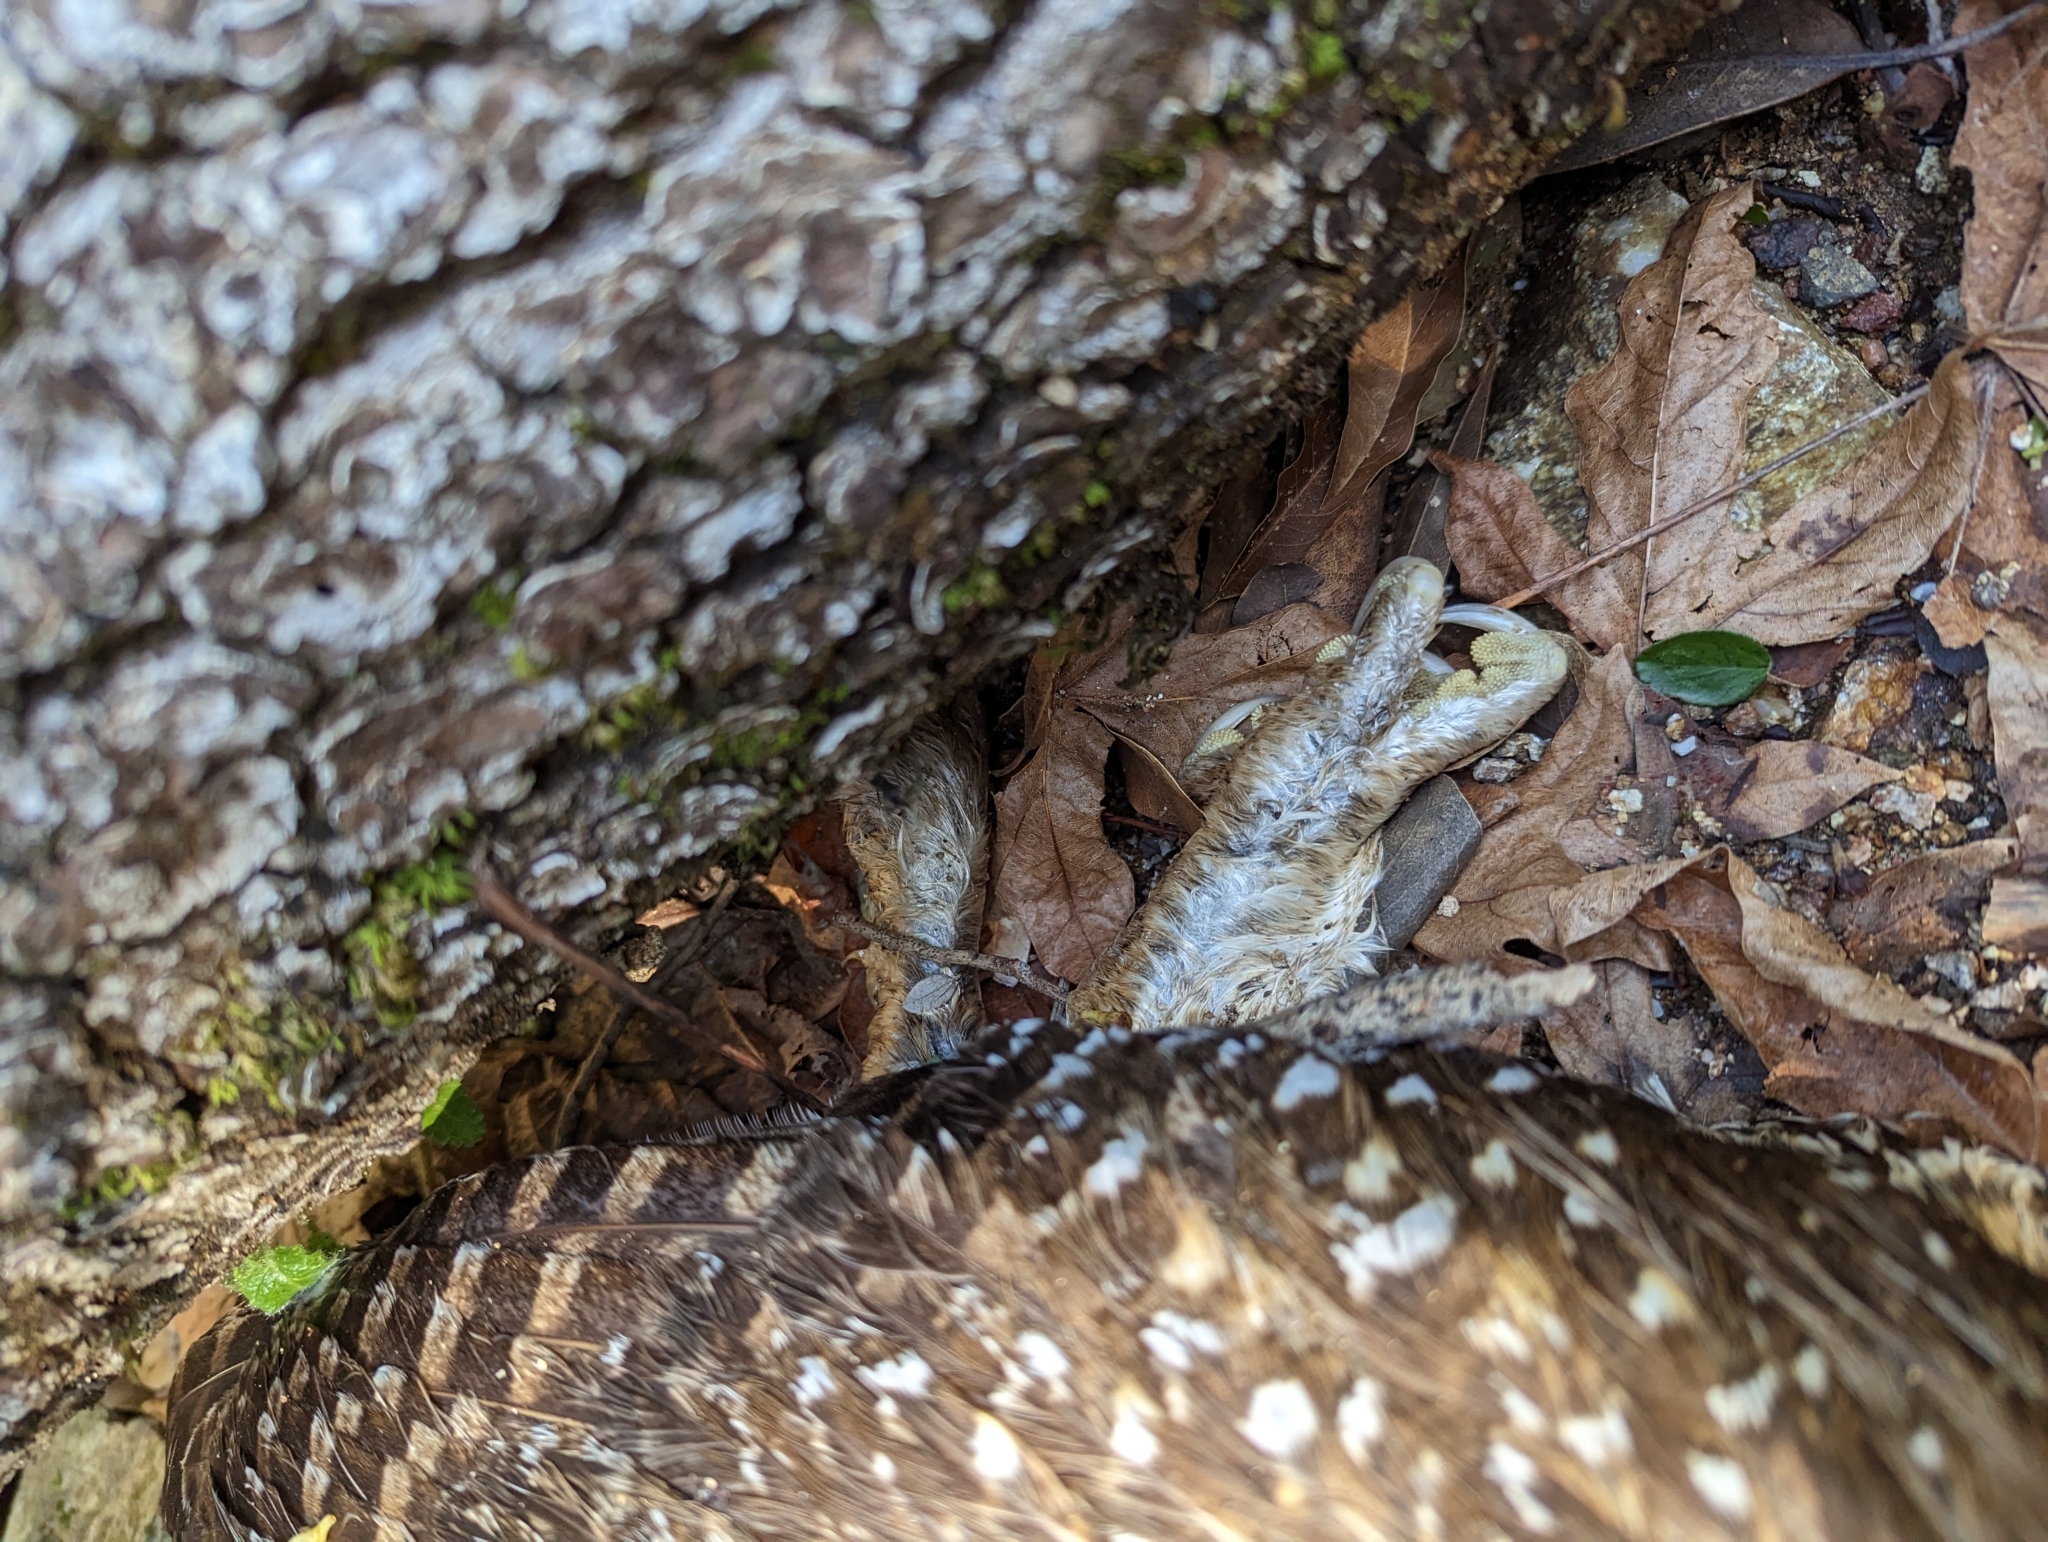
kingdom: Animalia
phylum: Chordata
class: Aves
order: Strigiformes
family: Strigidae
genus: Strix
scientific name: Strix occidentalis
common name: Spotted owl
